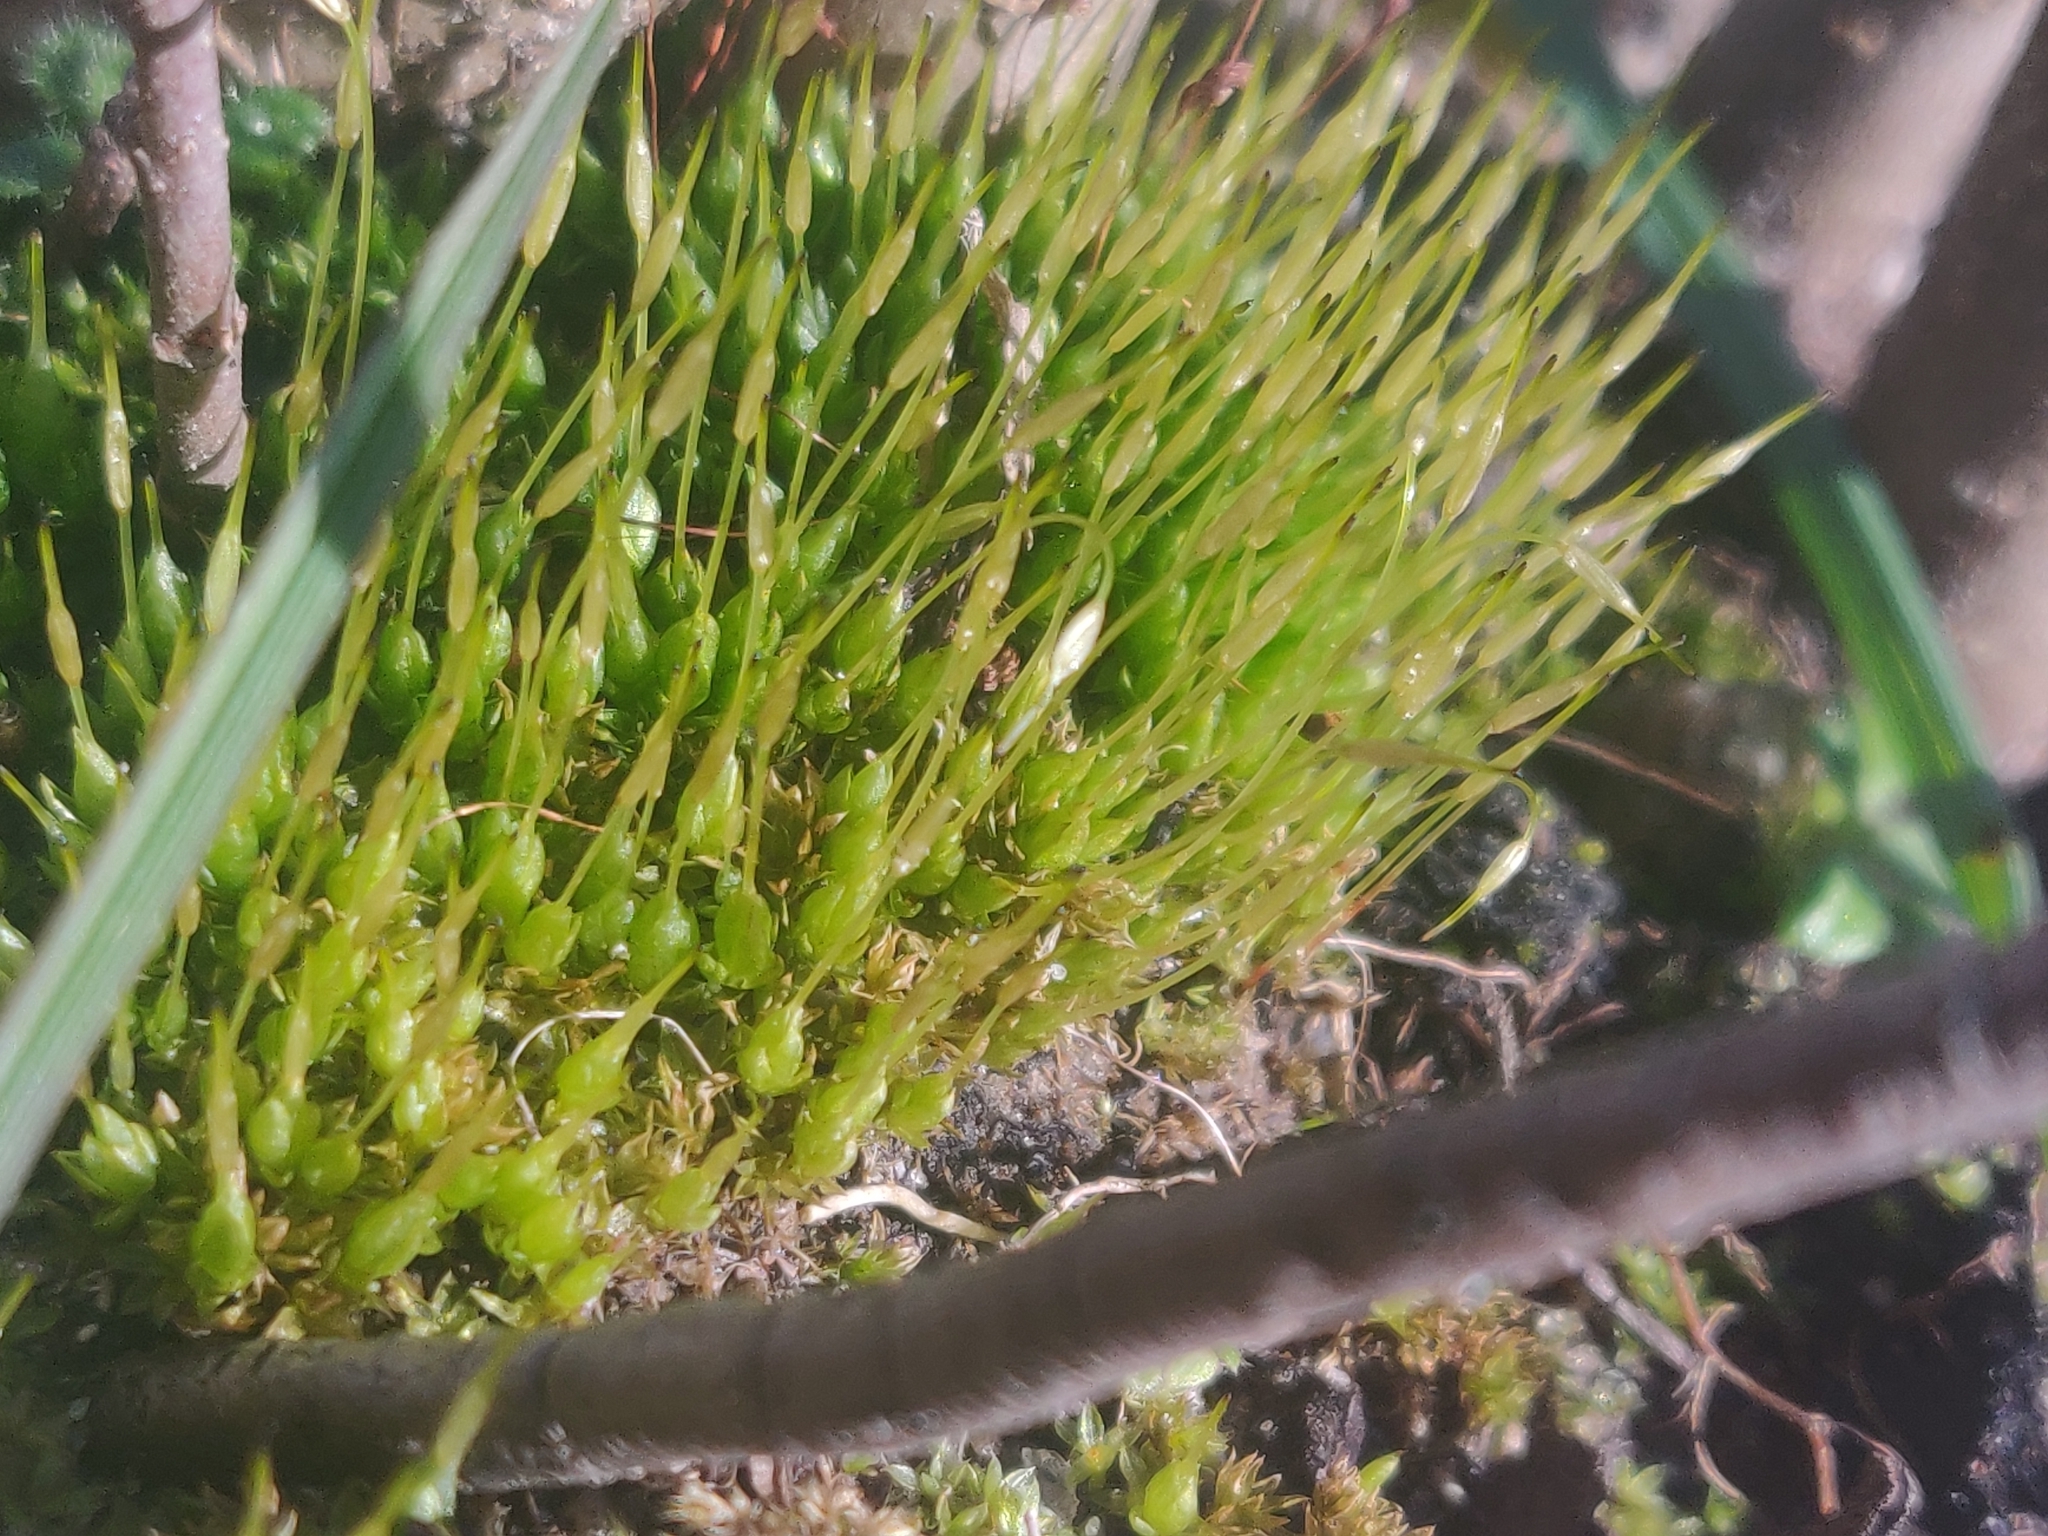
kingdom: Plantae
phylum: Bryophyta
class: Bryopsida
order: Funariales
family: Funariaceae
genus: Funaria
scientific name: Funaria hygrometrica
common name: Common cord moss
